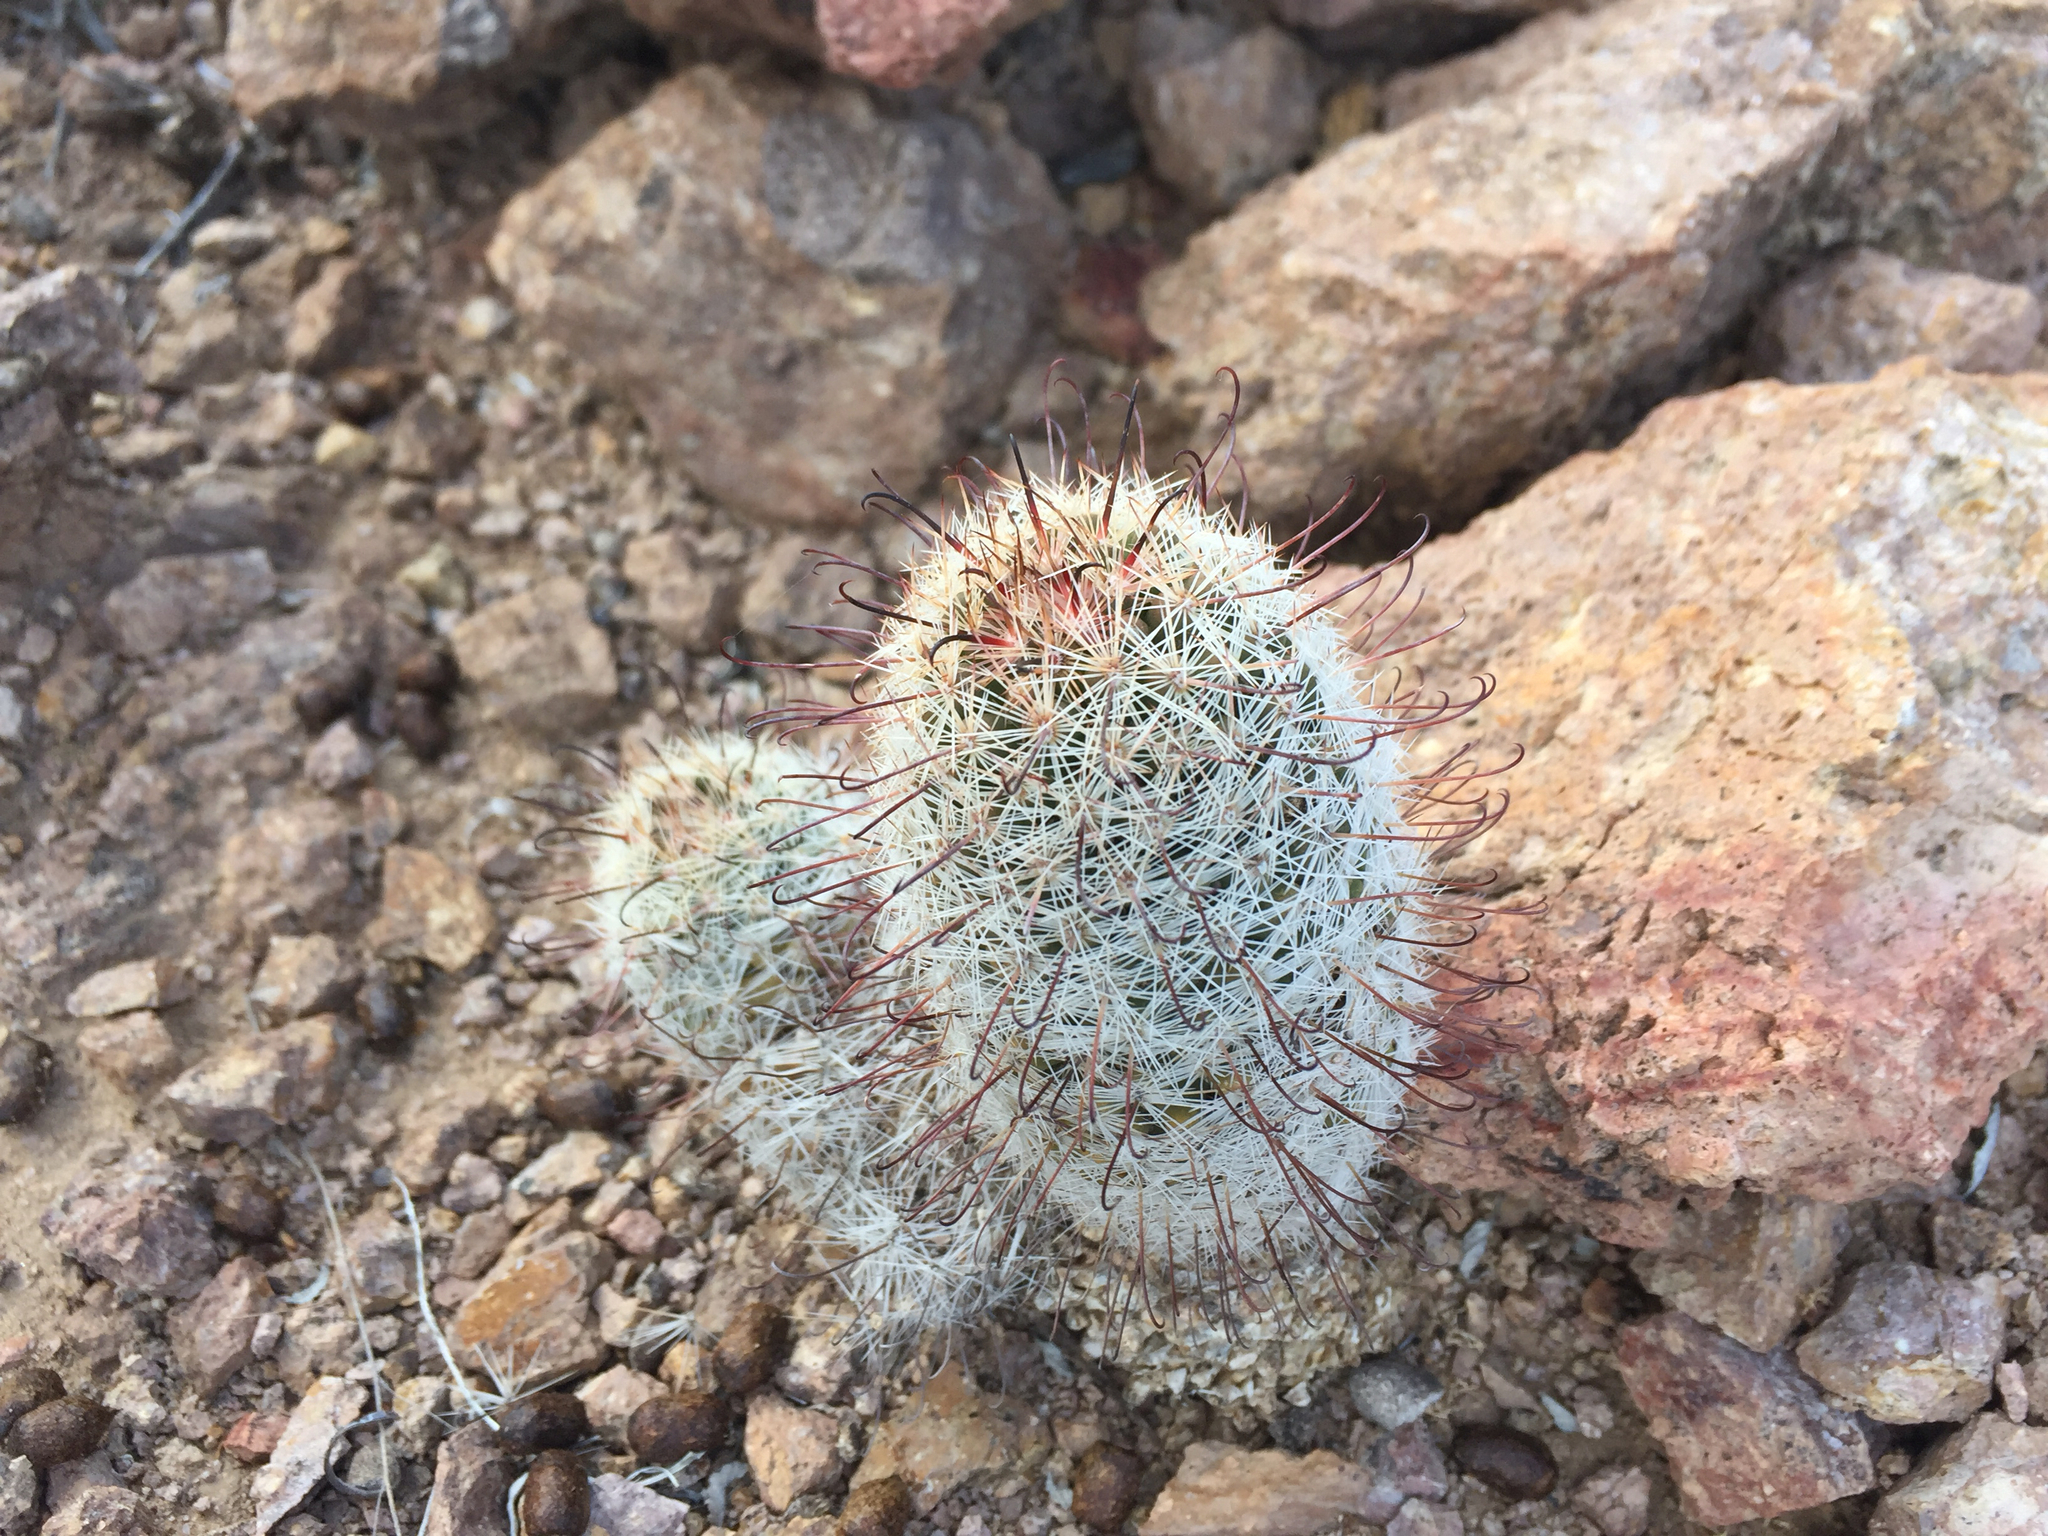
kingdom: Plantae
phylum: Tracheophyta
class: Magnoliopsida
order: Caryophyllales
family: Cactaceae
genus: Cochemiea
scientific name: Cochemiea grahamii
